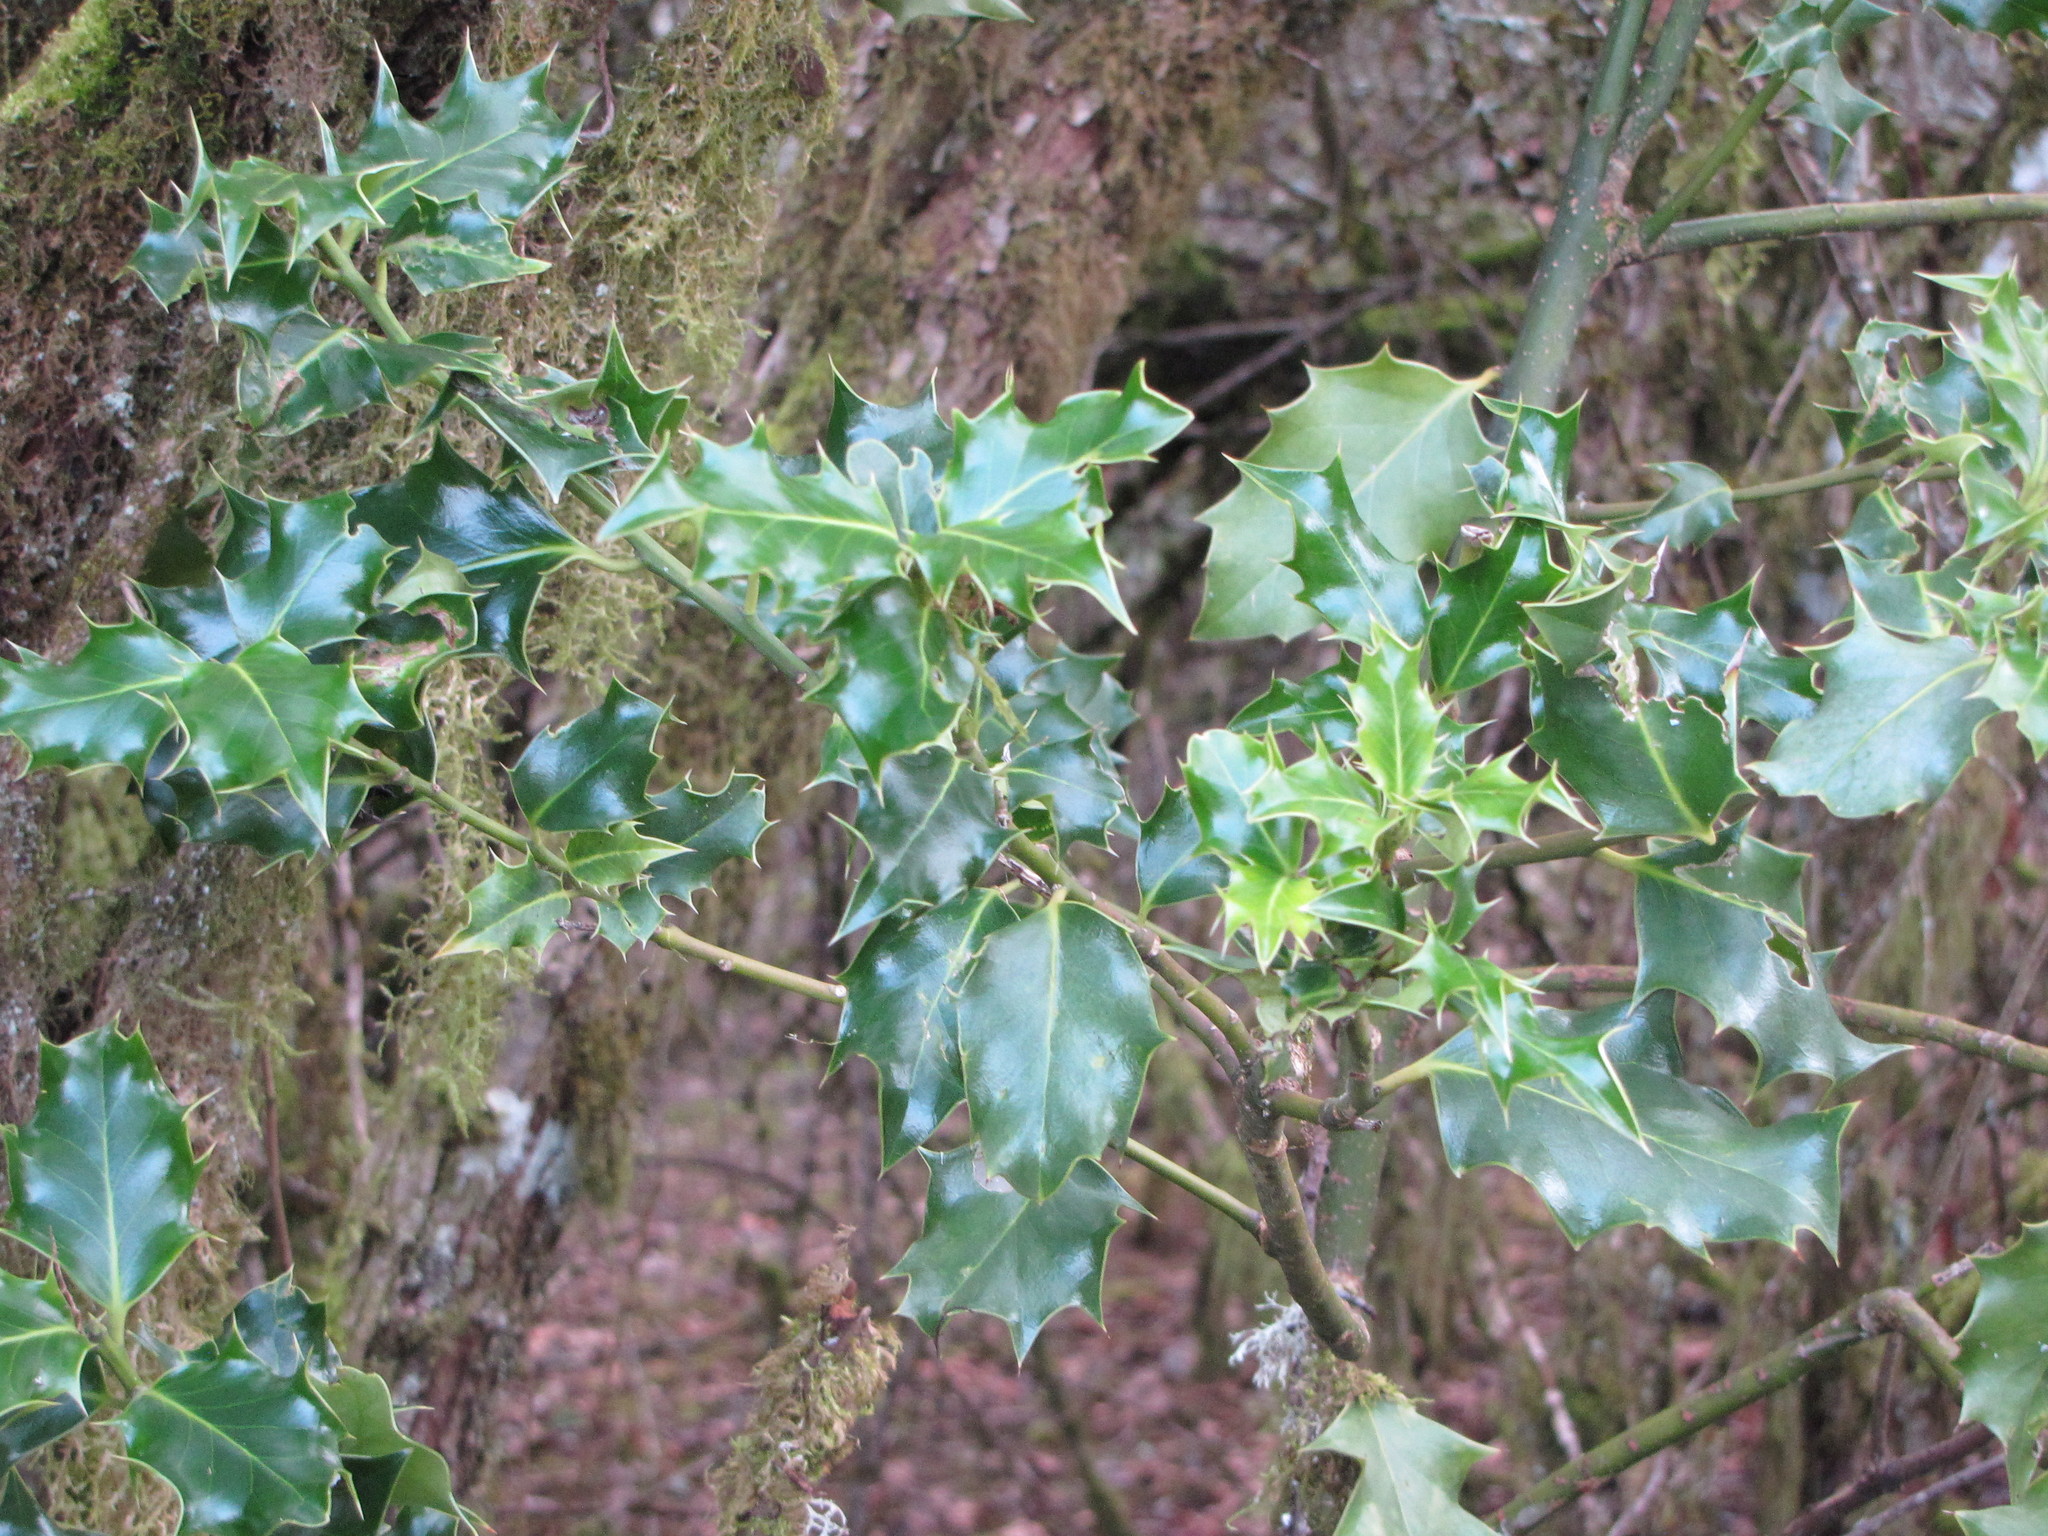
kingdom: Plantae
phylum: Tracheophyta
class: Magnoliopsida
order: Aquifoliales
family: Aquifoliaceae
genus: Ilex
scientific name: Ilex aquifolium
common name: English holly
